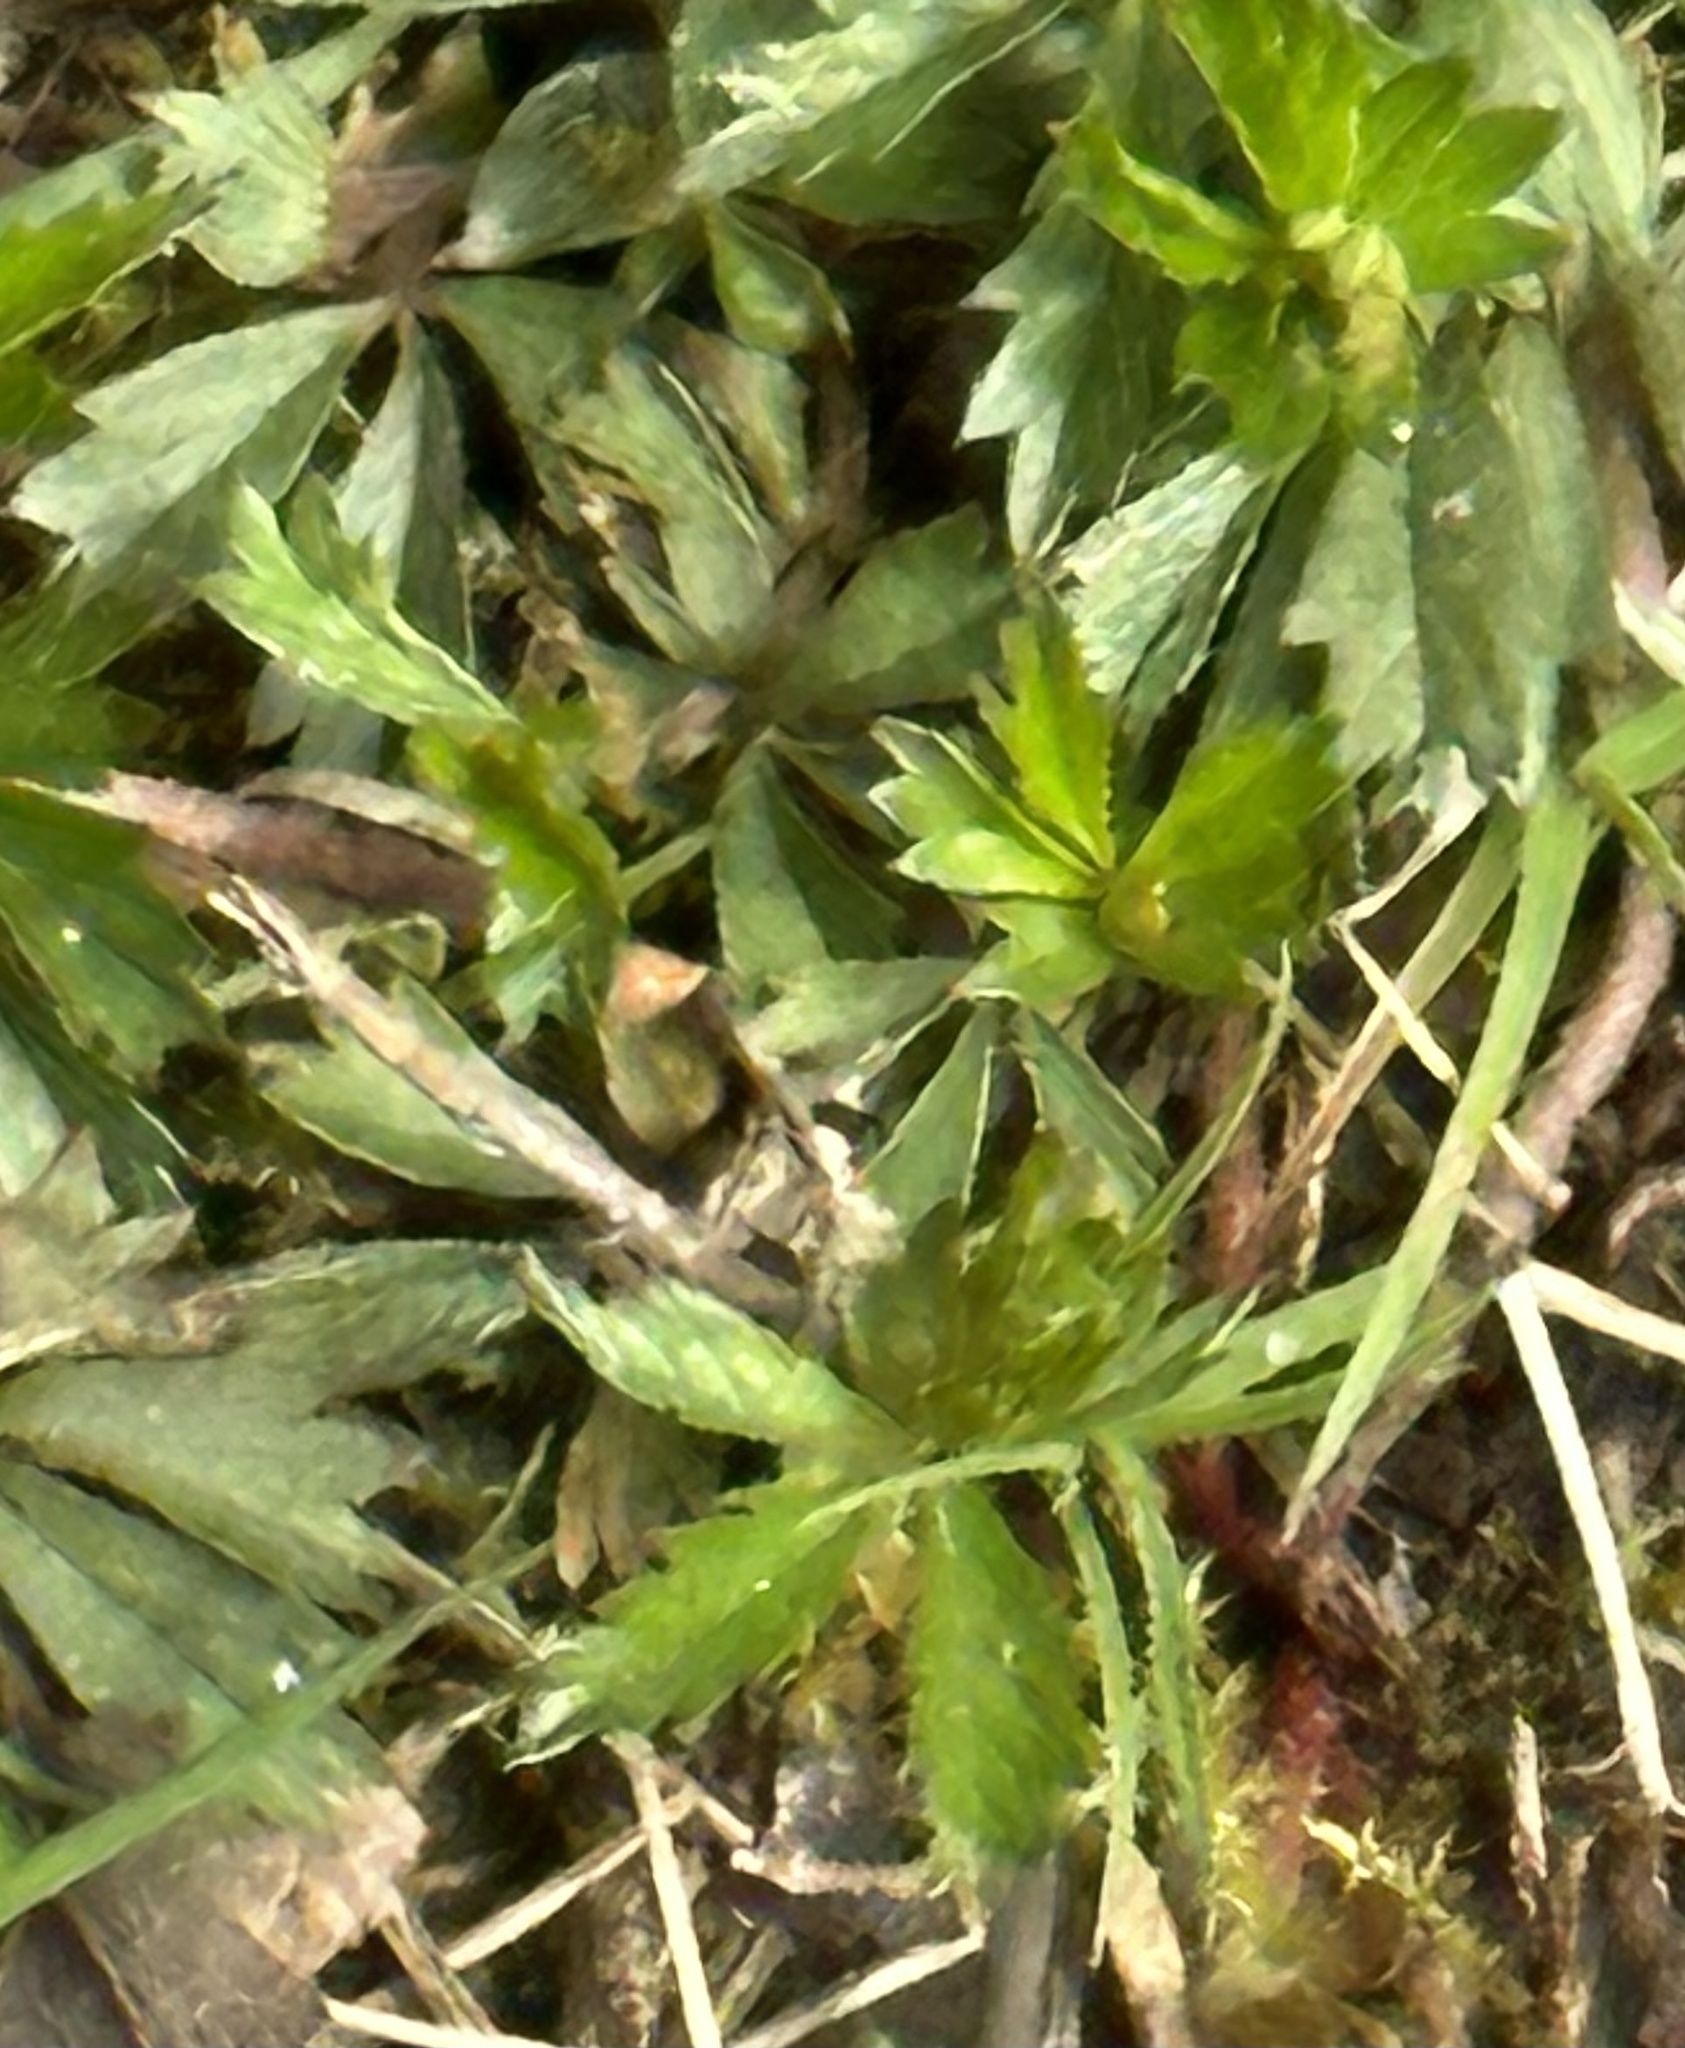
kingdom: Plantae
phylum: Tracheophyta
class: Magnoliopsida
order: Rosales
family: Rosaceae
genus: Potentilla
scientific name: Potentilla erecta
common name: Tormentil
